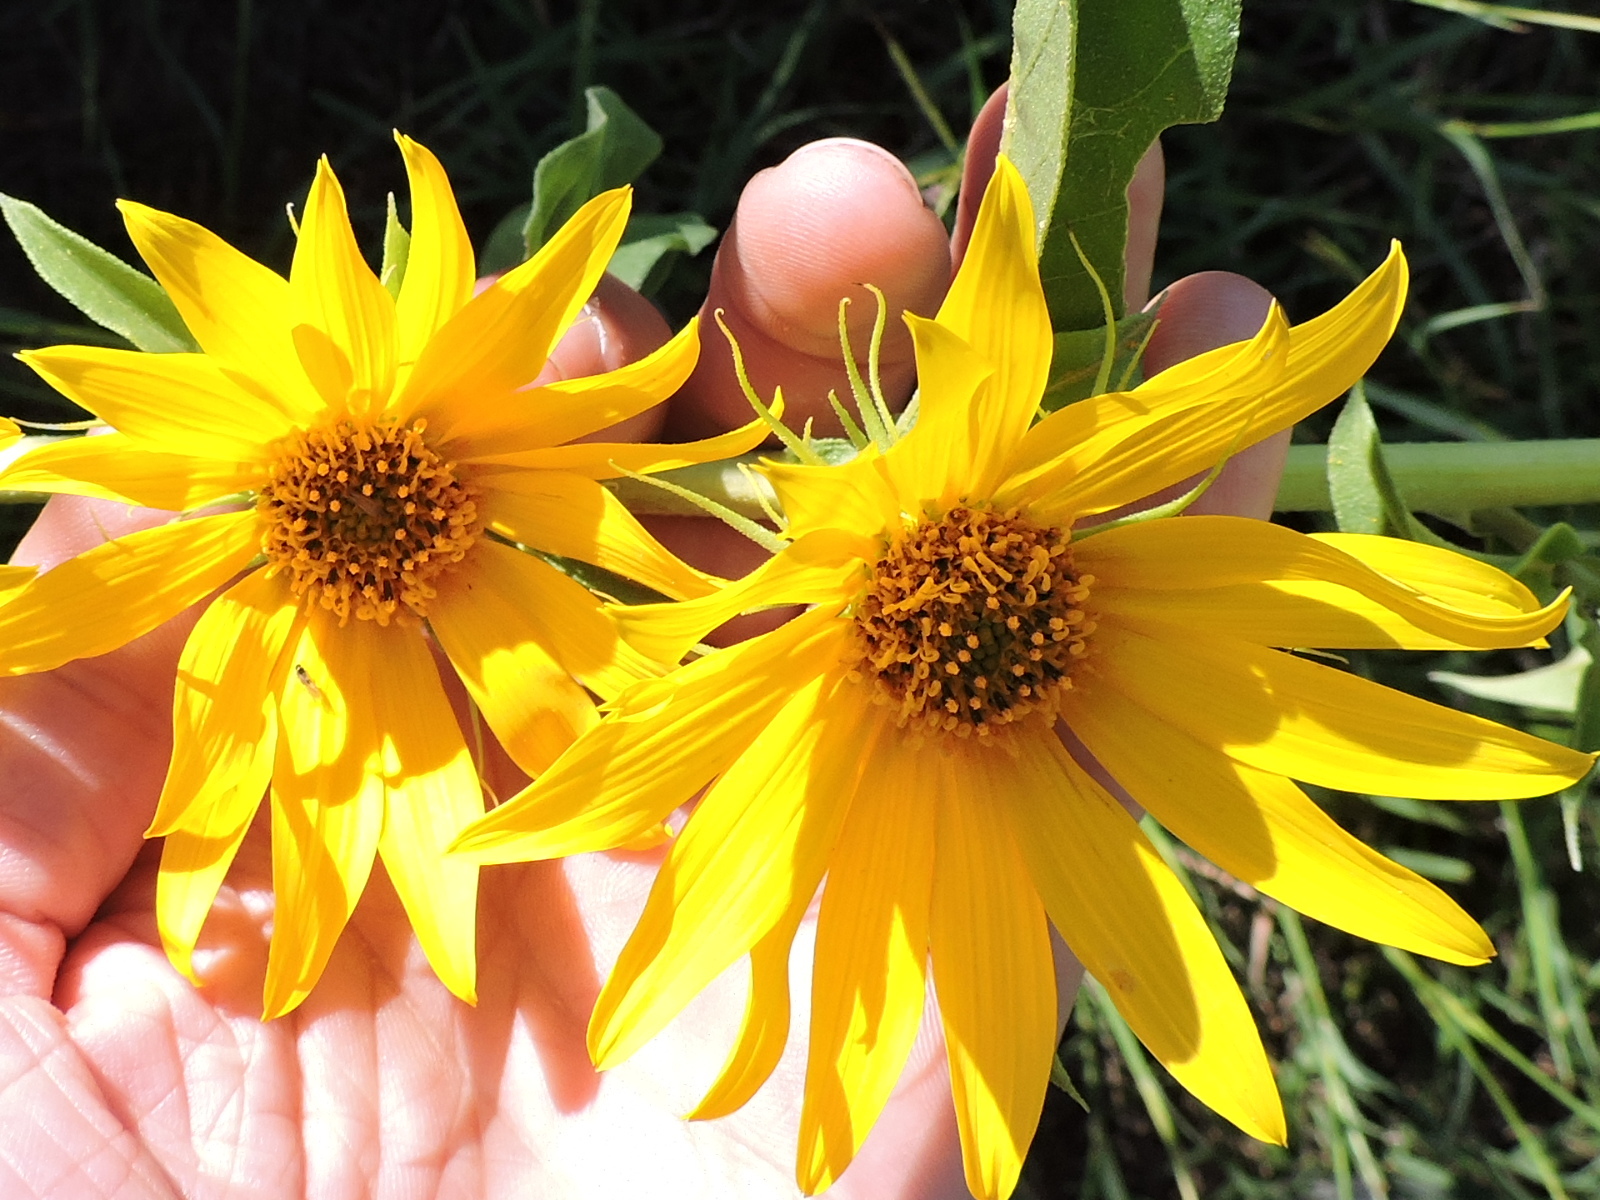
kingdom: Plantae
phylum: Tracheophyta
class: Magnoliopsida
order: Asterales
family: Asteraceae
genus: Helianthus
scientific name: Helianthus maximiliani
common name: Maximilian's sunflower
